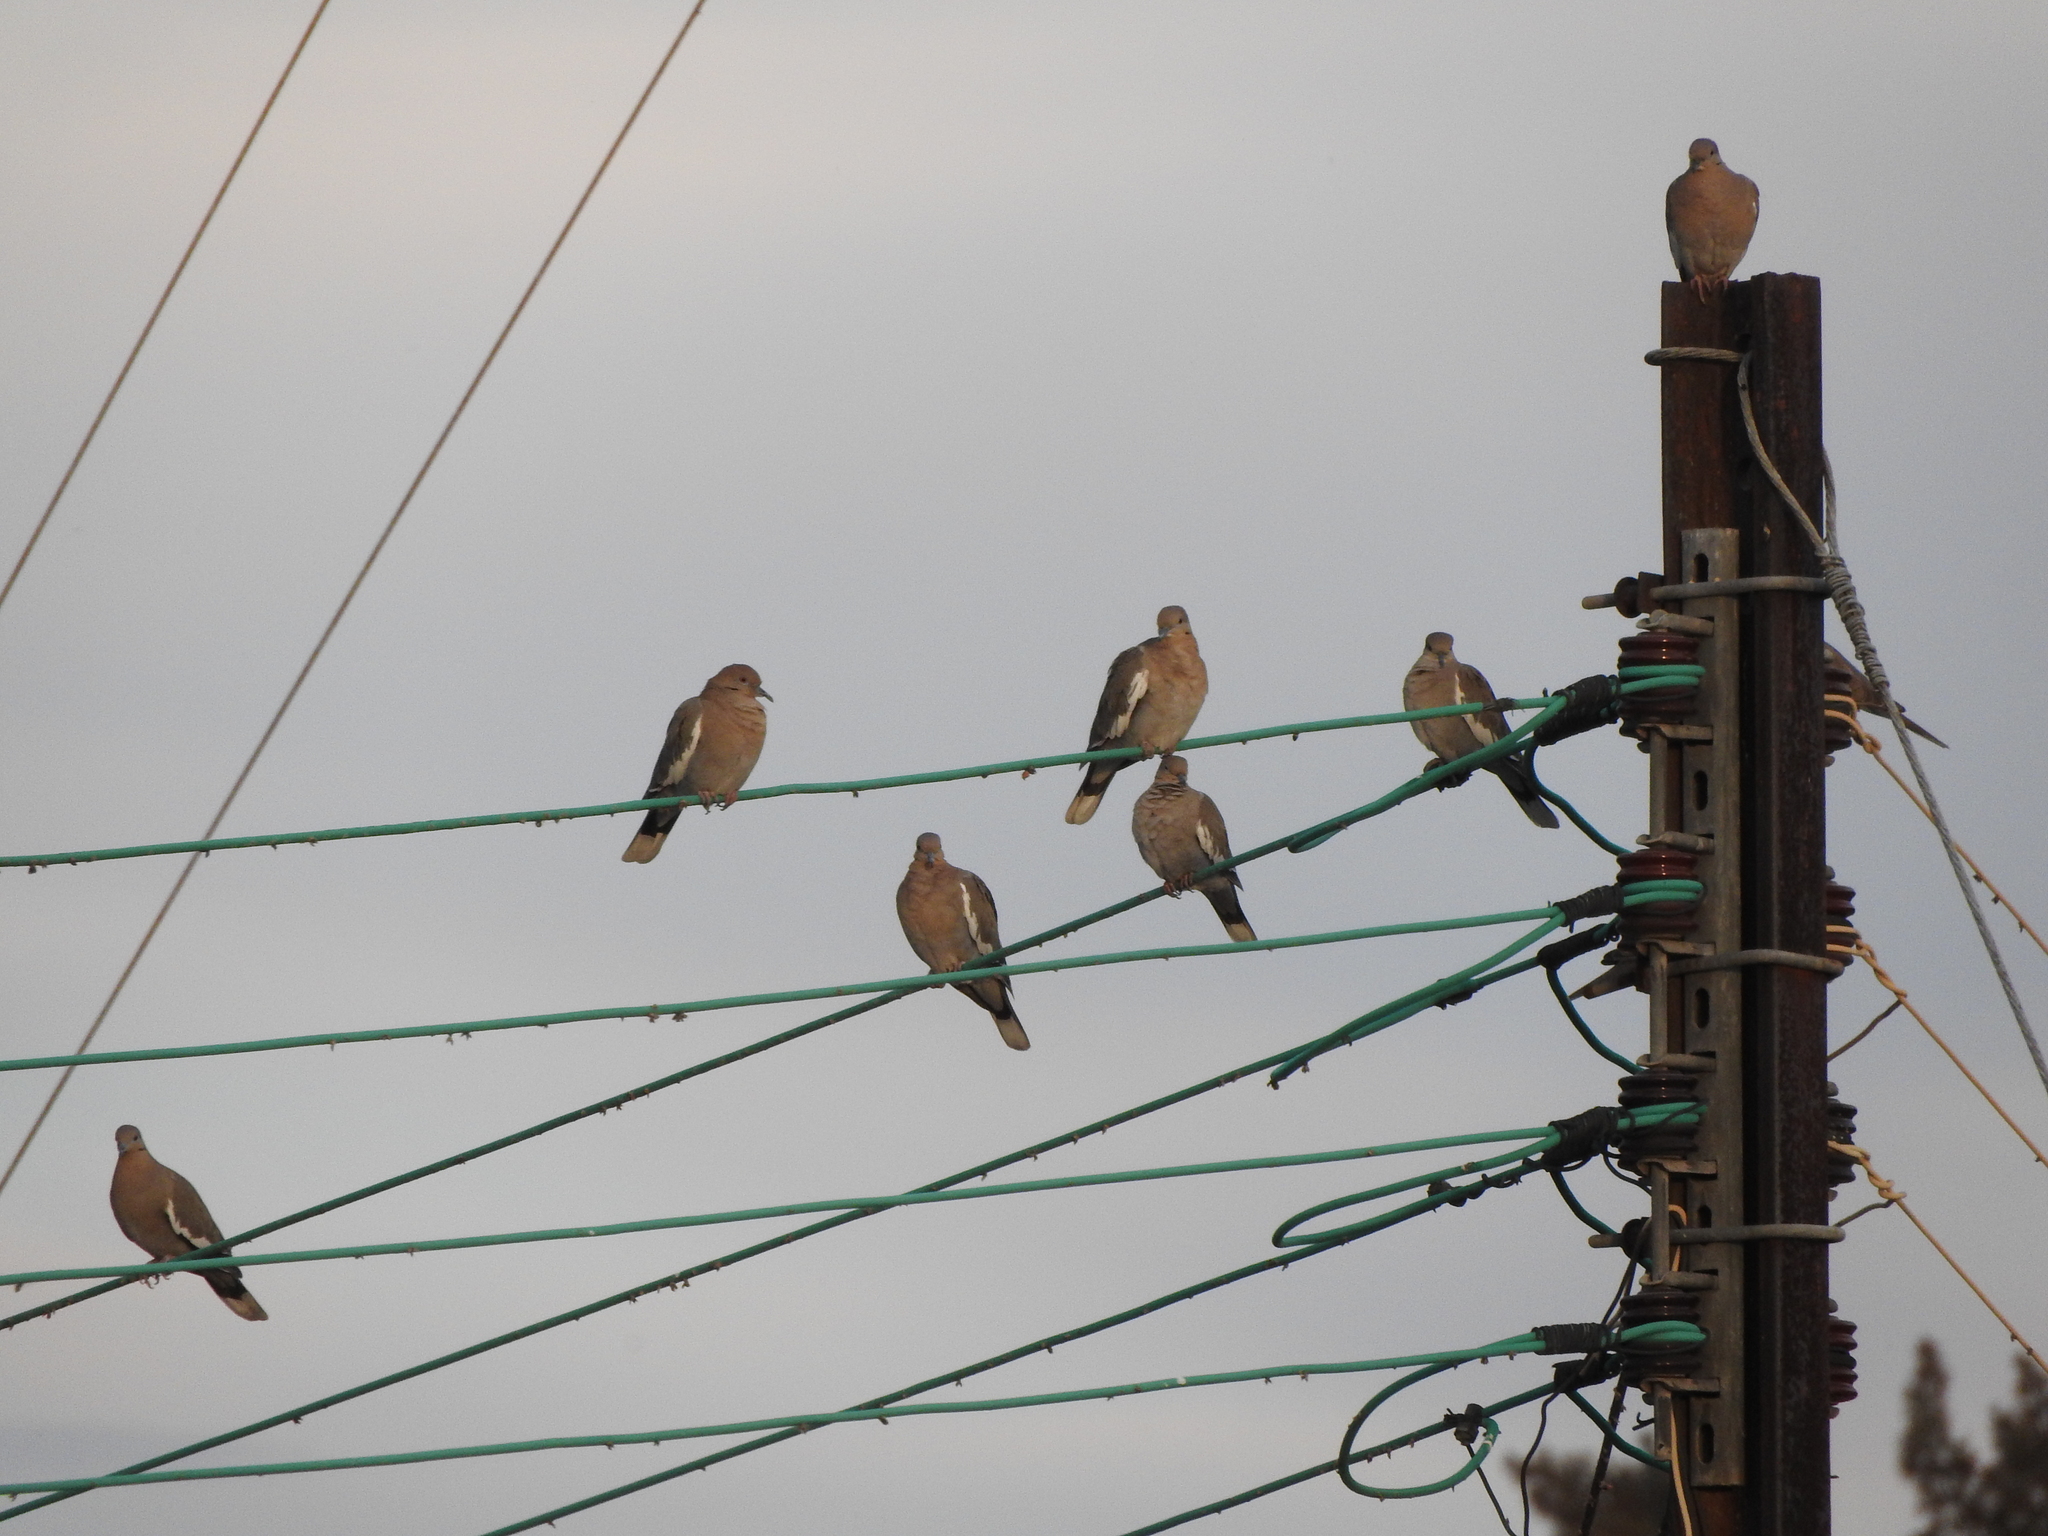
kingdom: Animalia
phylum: Chordata
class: Aves
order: Columbiformes
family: Columbidae
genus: Zenaida
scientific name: Zenaida asiatica
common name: White-winged dove
